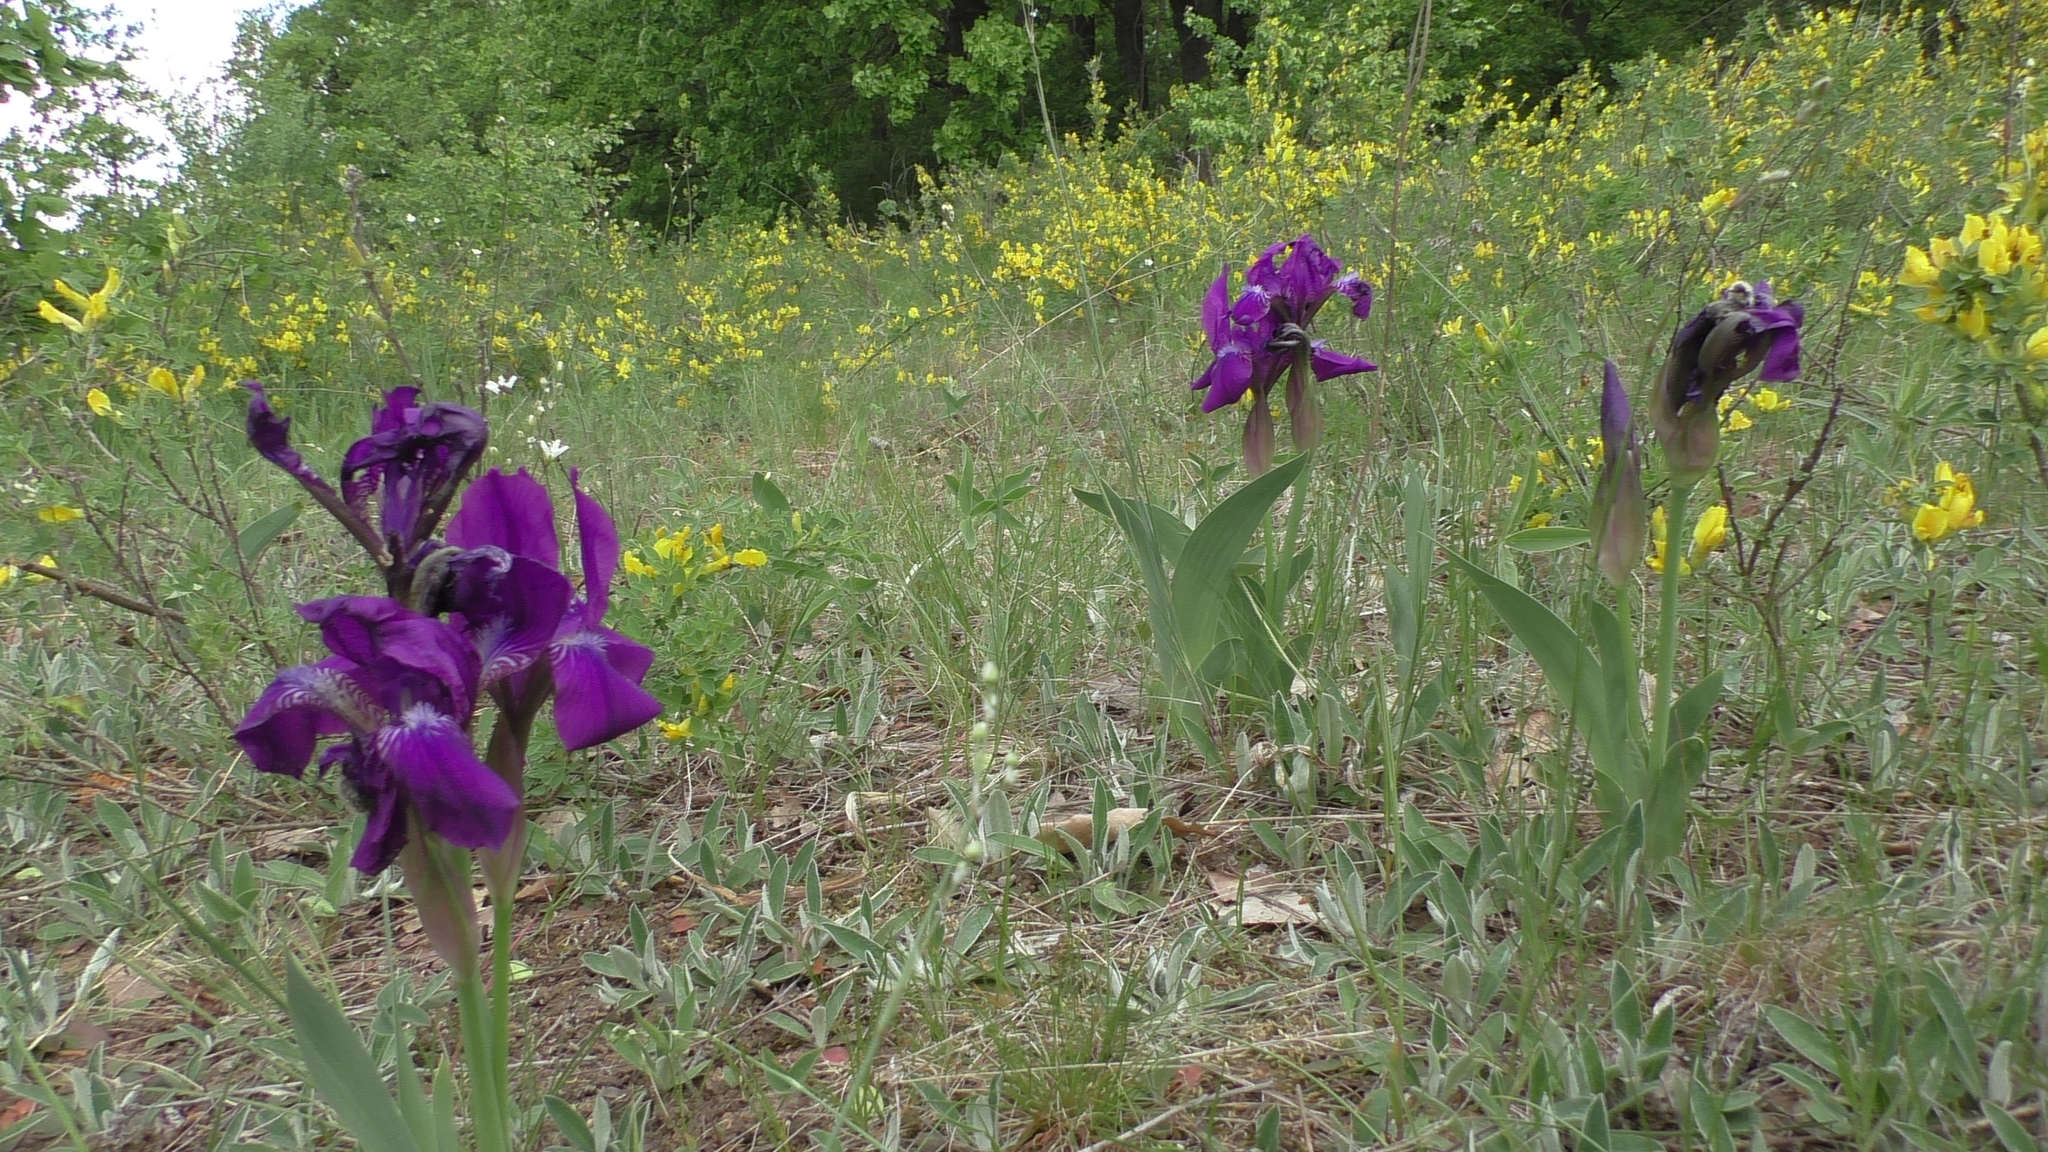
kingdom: Plantae
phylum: Tracheophyta
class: Liliopsida
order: Asparagales
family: Iridaceae
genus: Iris
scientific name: Iris aphylla
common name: Stool iris
